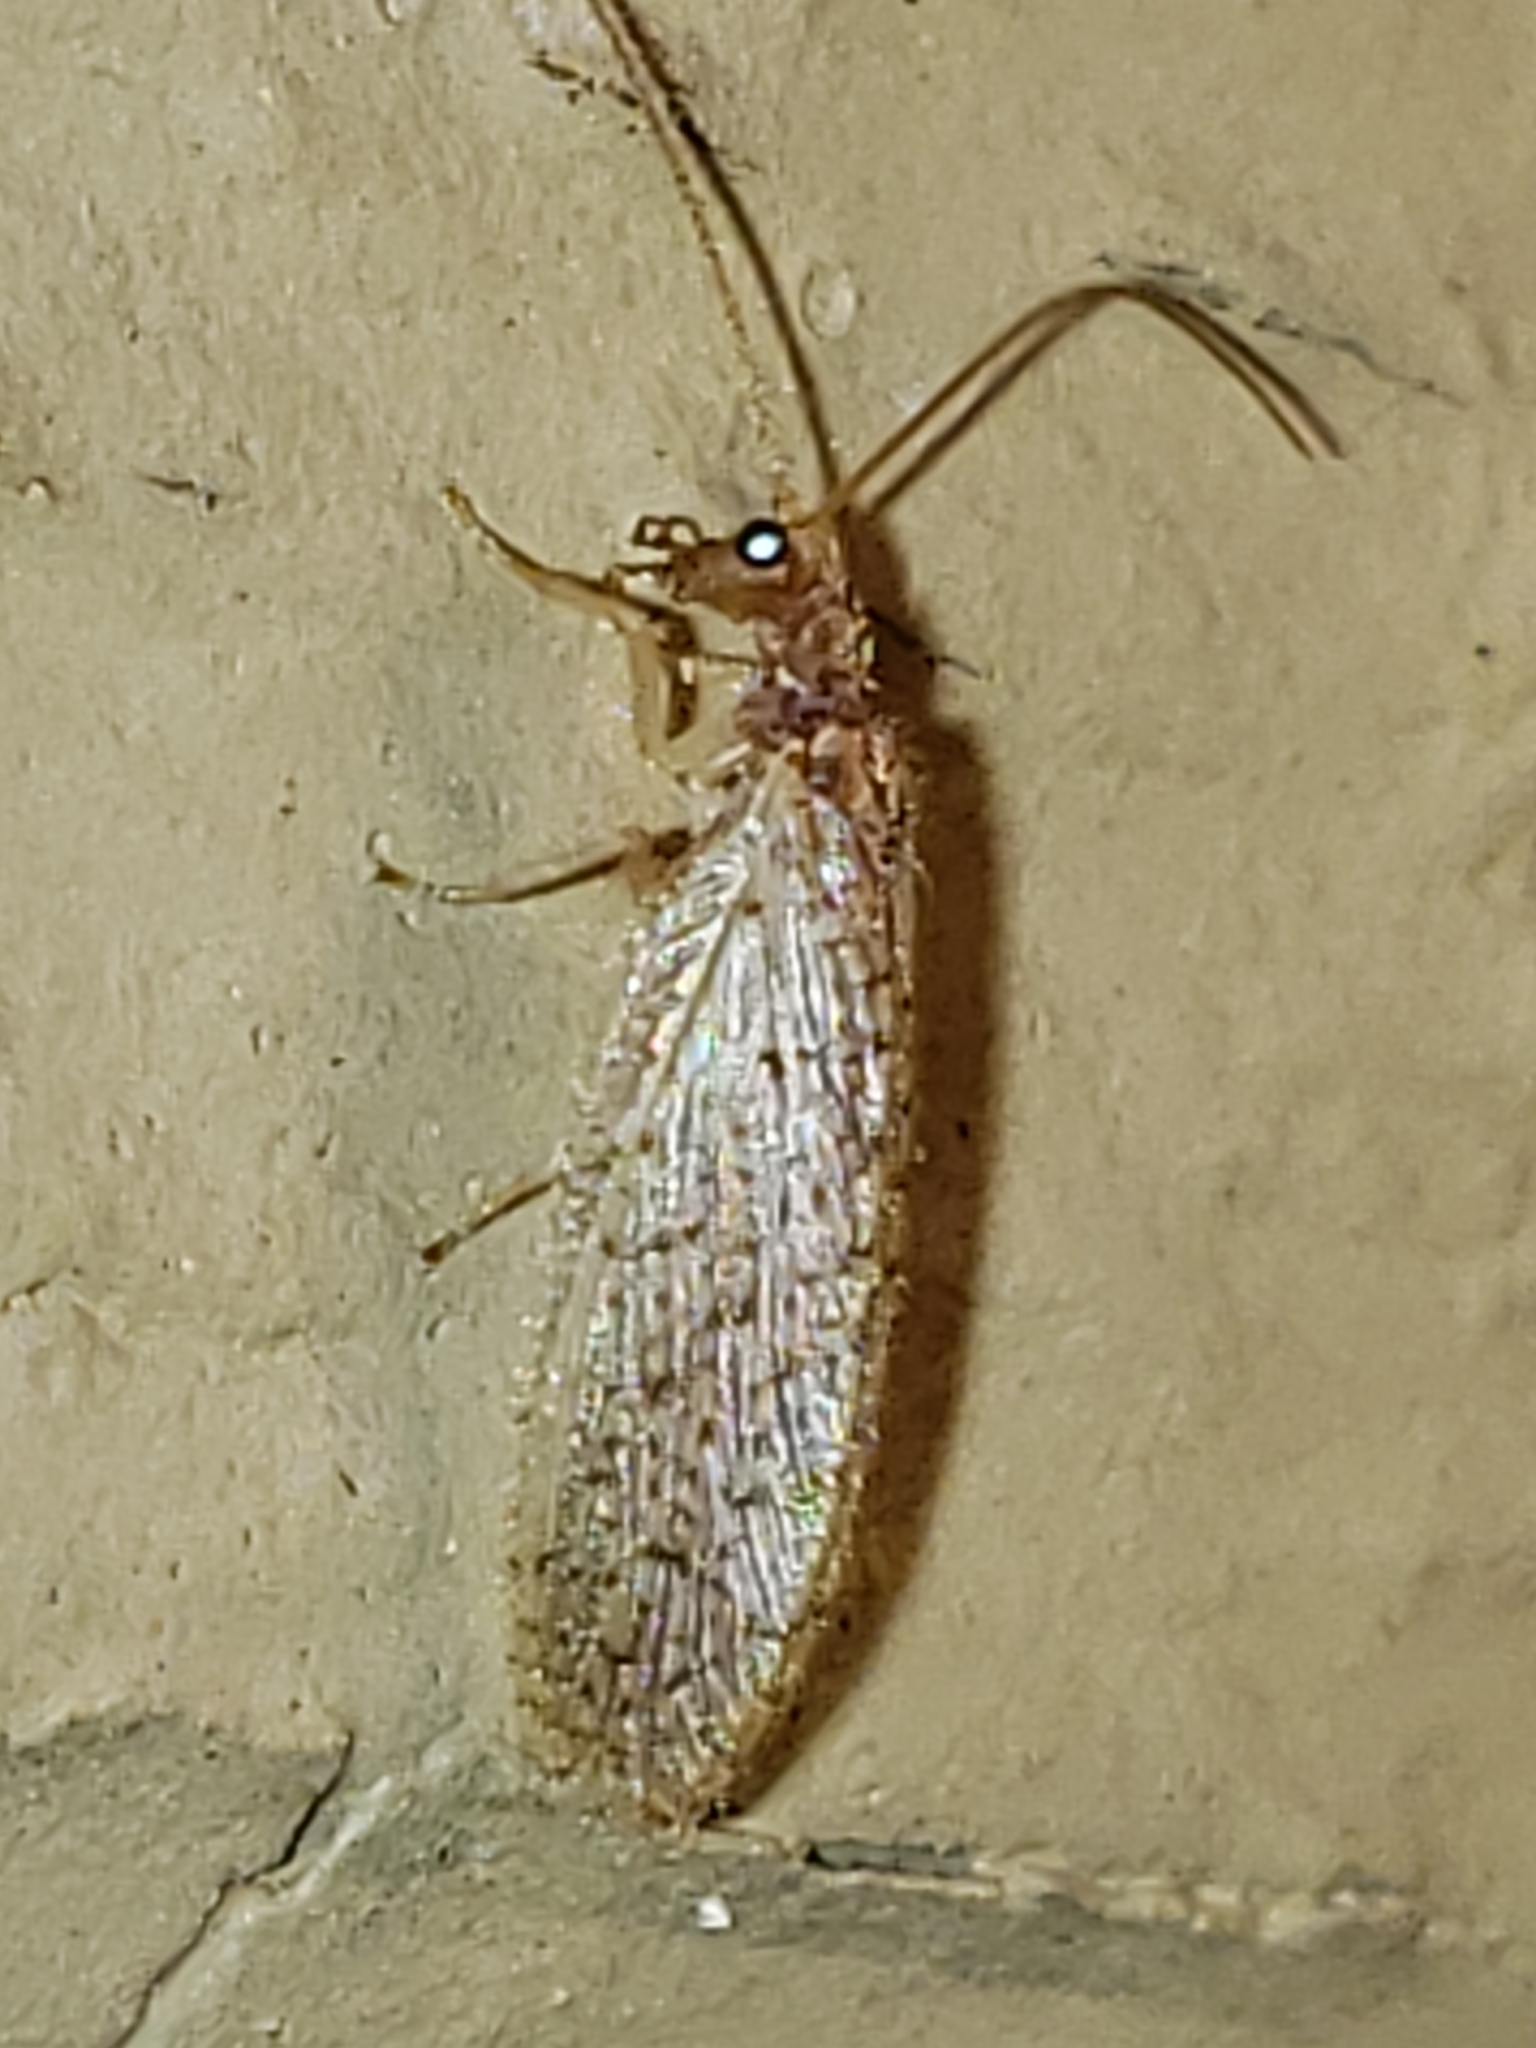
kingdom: Animalia
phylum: Arthropoda
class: Insecta
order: Neuroptera
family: Hemerobiidae
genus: Micromus
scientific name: Micromus subanticus
